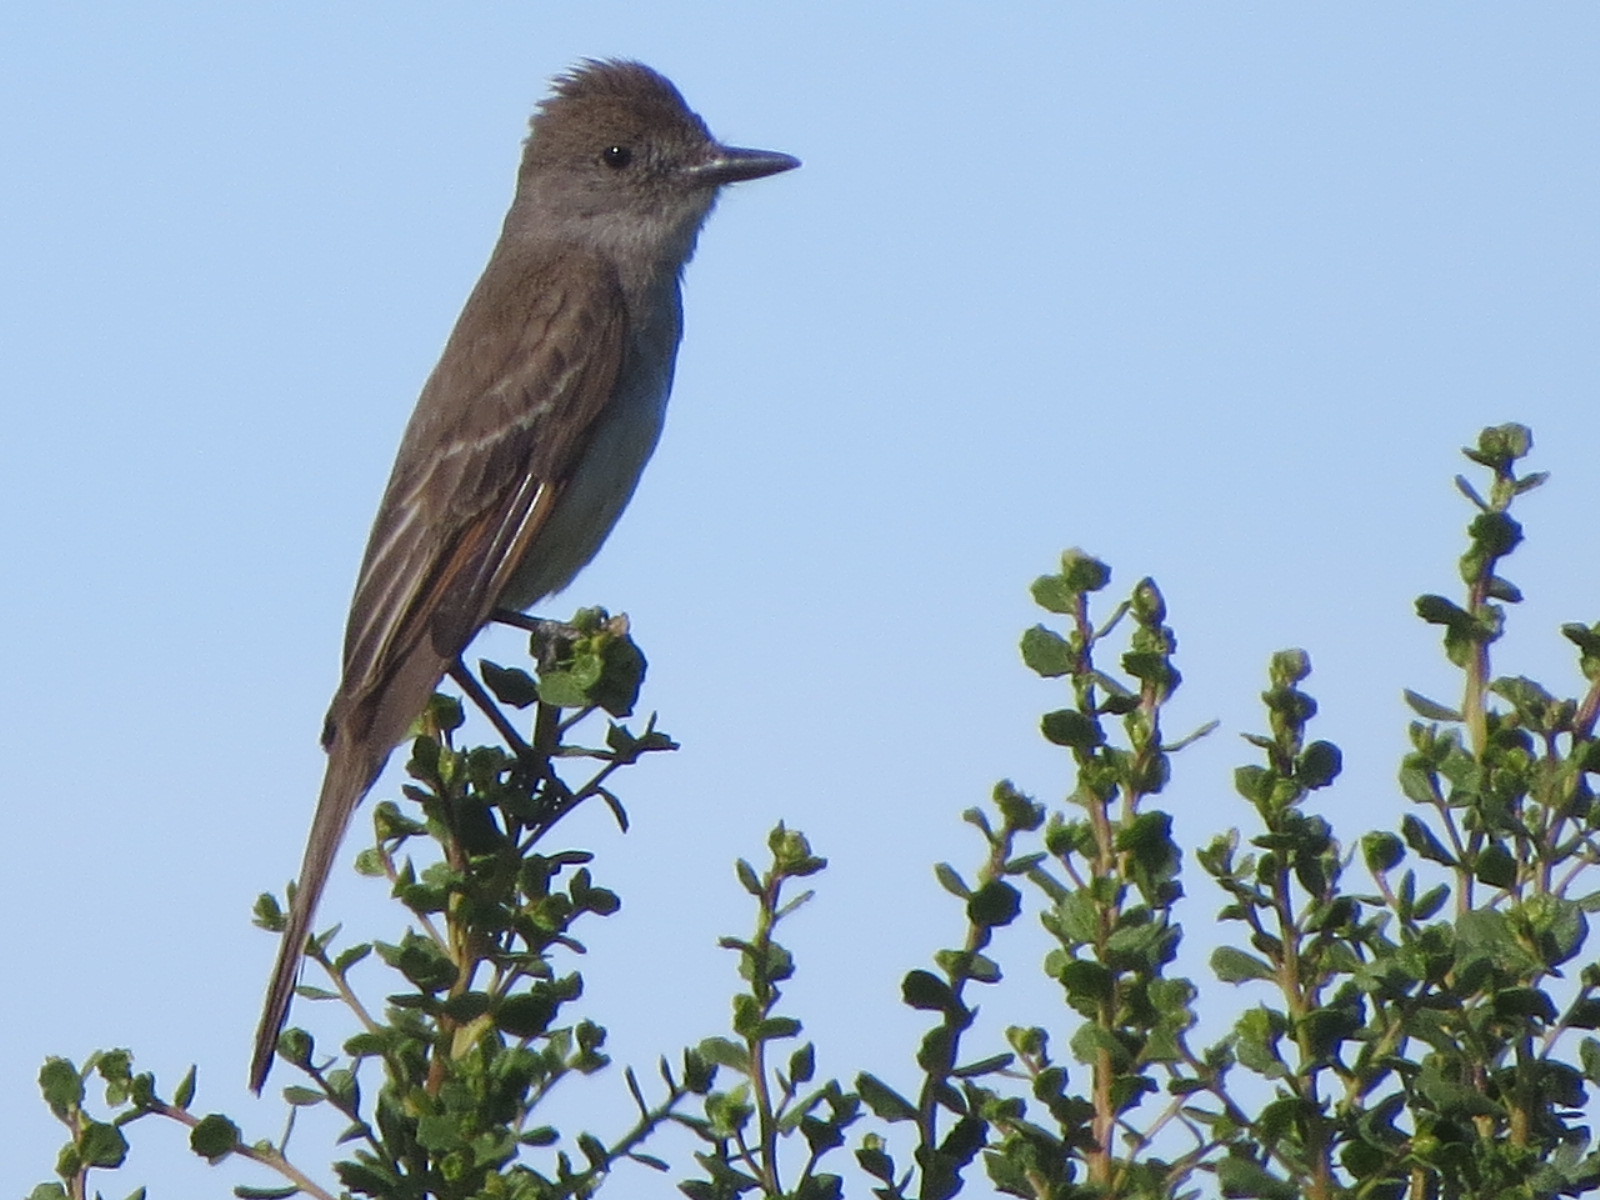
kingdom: Animalia
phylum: Chordata
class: Aves
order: Passeriformes
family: Tyrannidae
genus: Myiarchus
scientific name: Myiarchus cinerascens
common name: Ash-throated flycatcher
